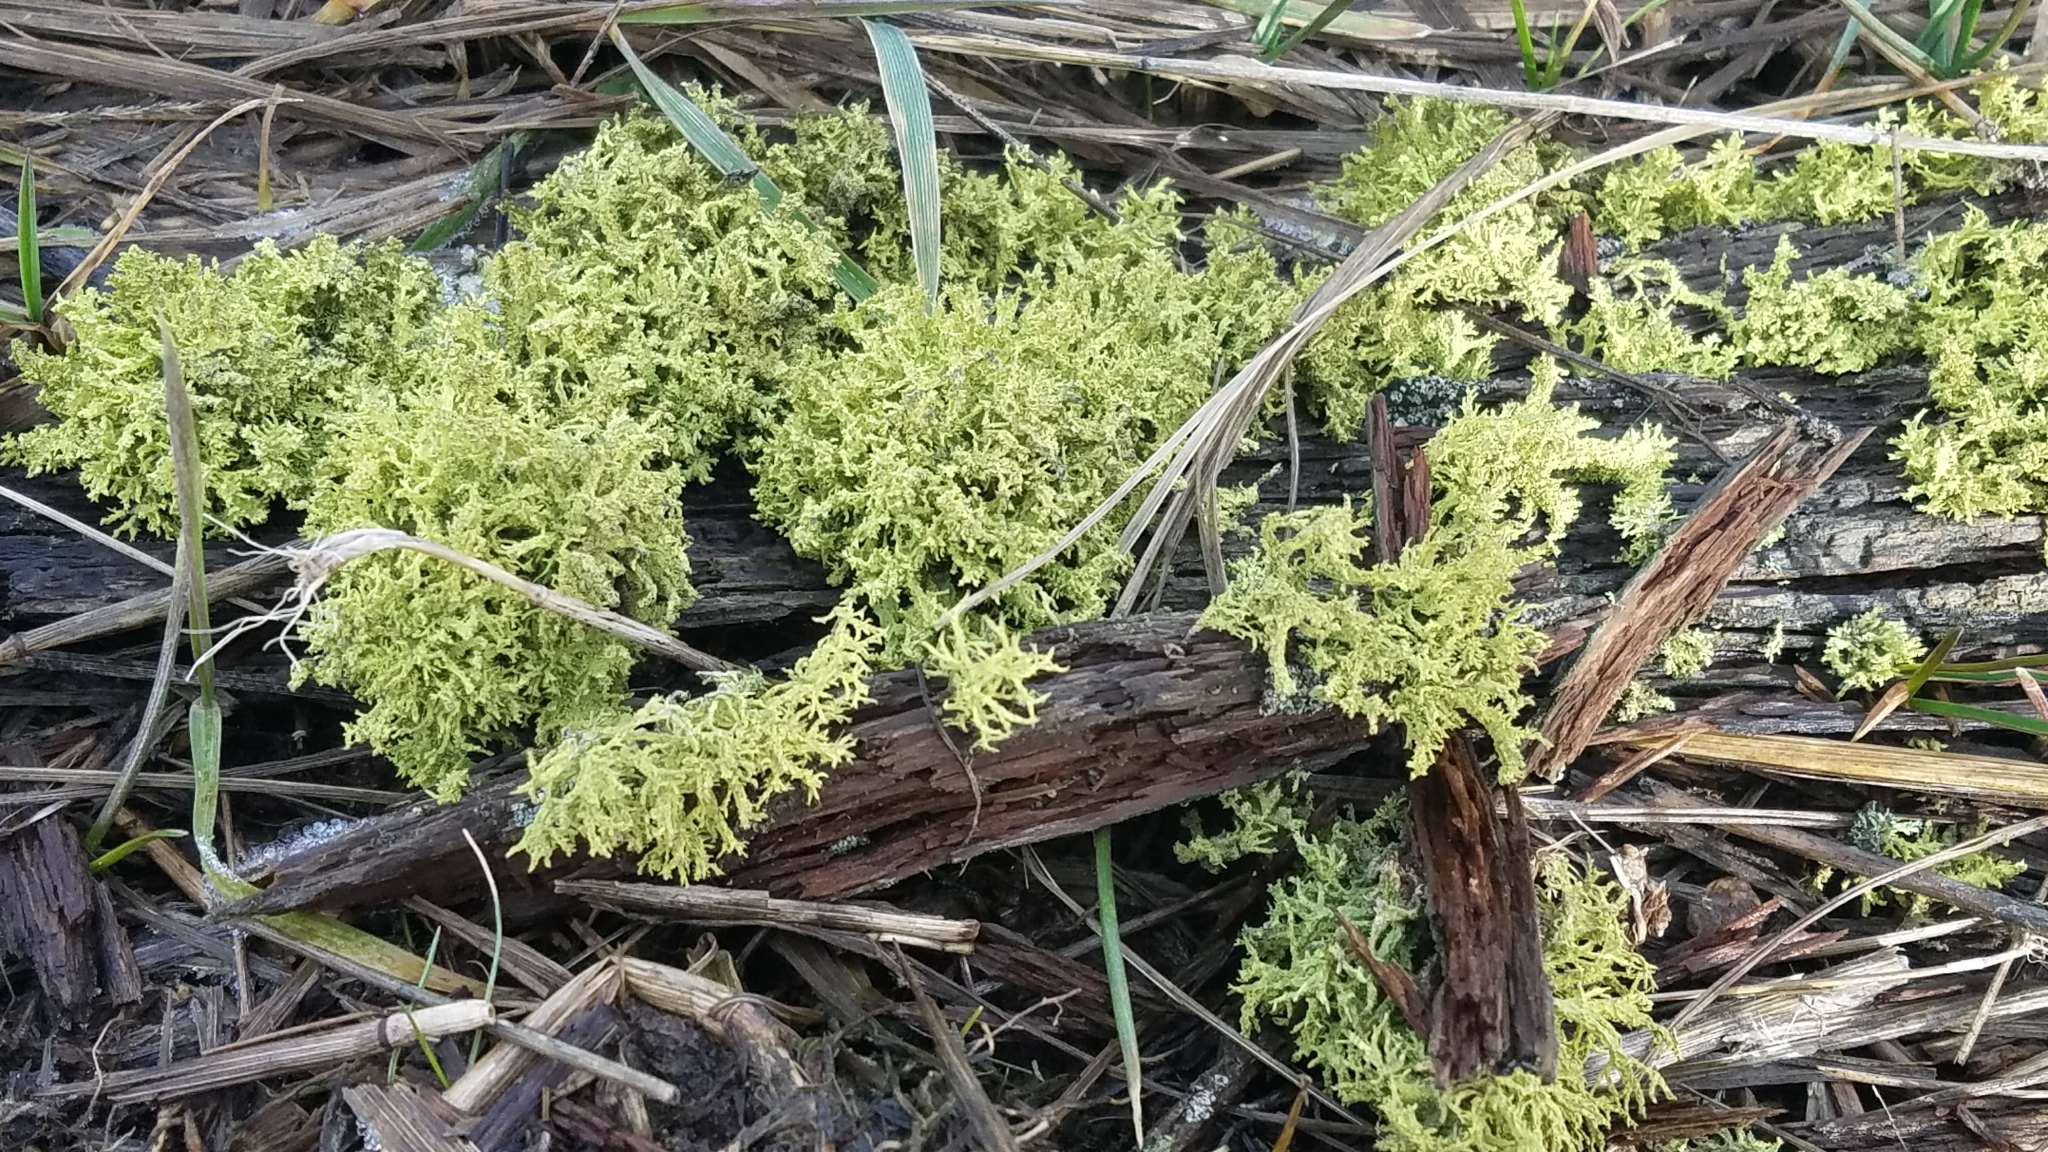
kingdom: Fungi
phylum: Ascomycota
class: Lecanoromycetes
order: Lecanorales
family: Parmeliaceae
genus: Letharia
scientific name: Letharia vulpina
